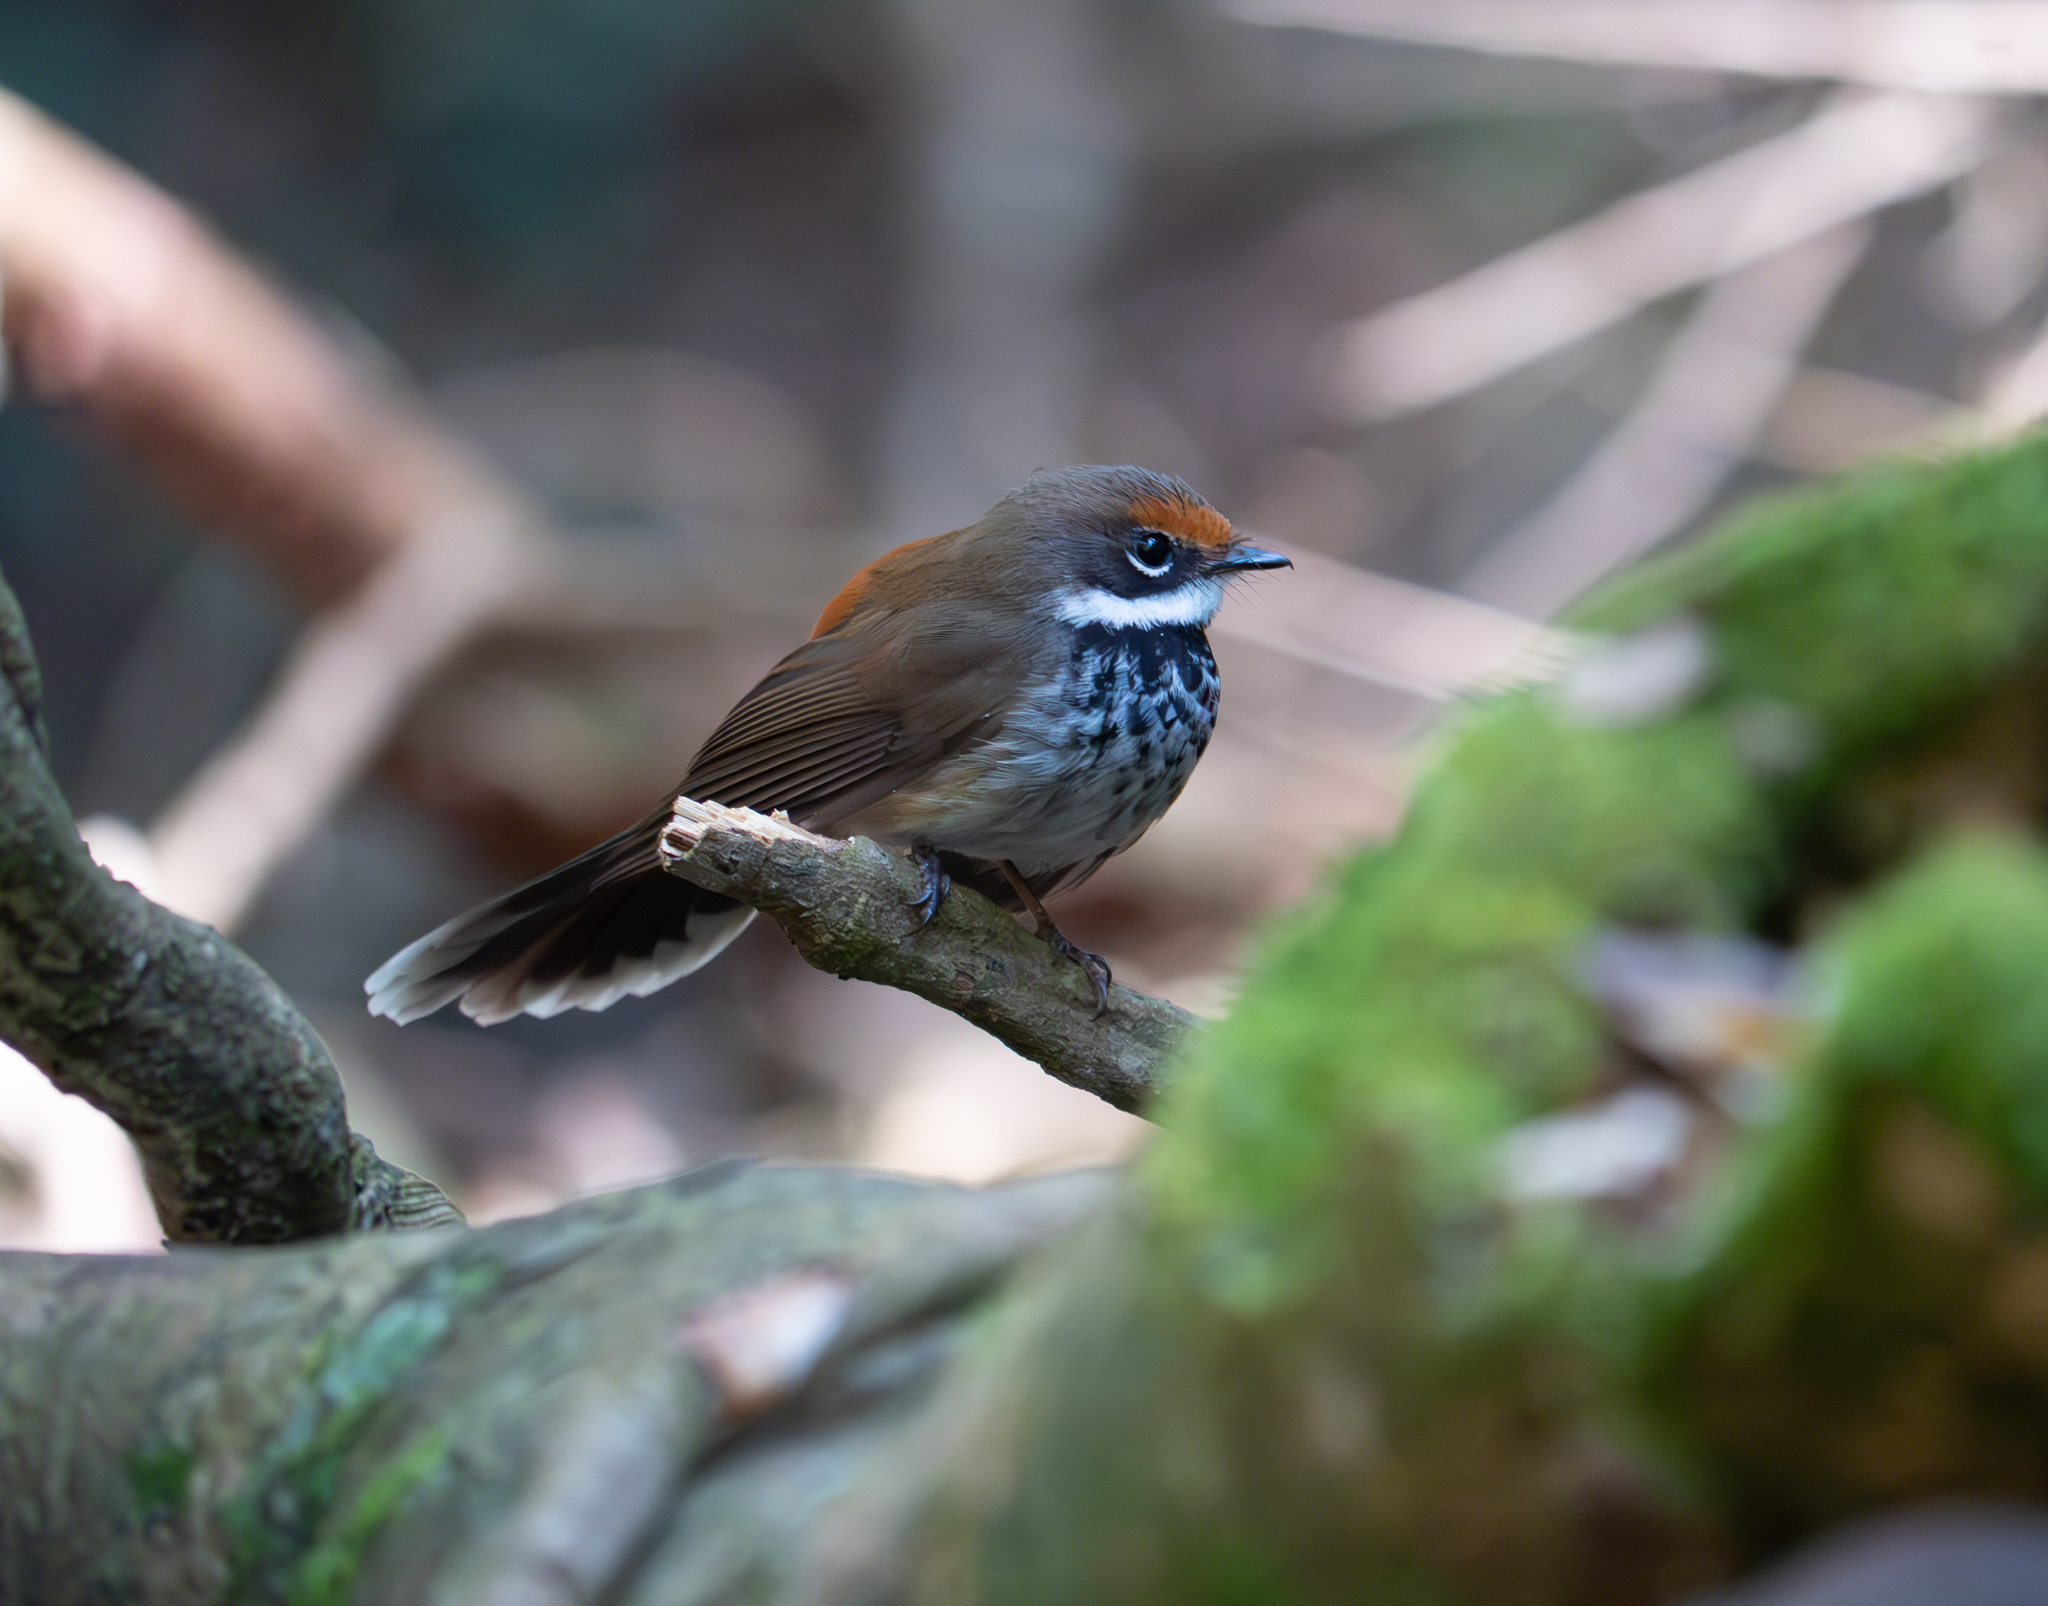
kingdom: Animalia
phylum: Chordata
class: Aves
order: Passeriformes
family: Rhipiduridae
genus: Rhipidura
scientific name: Rhipidura rufifrons
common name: Rufous fantail
